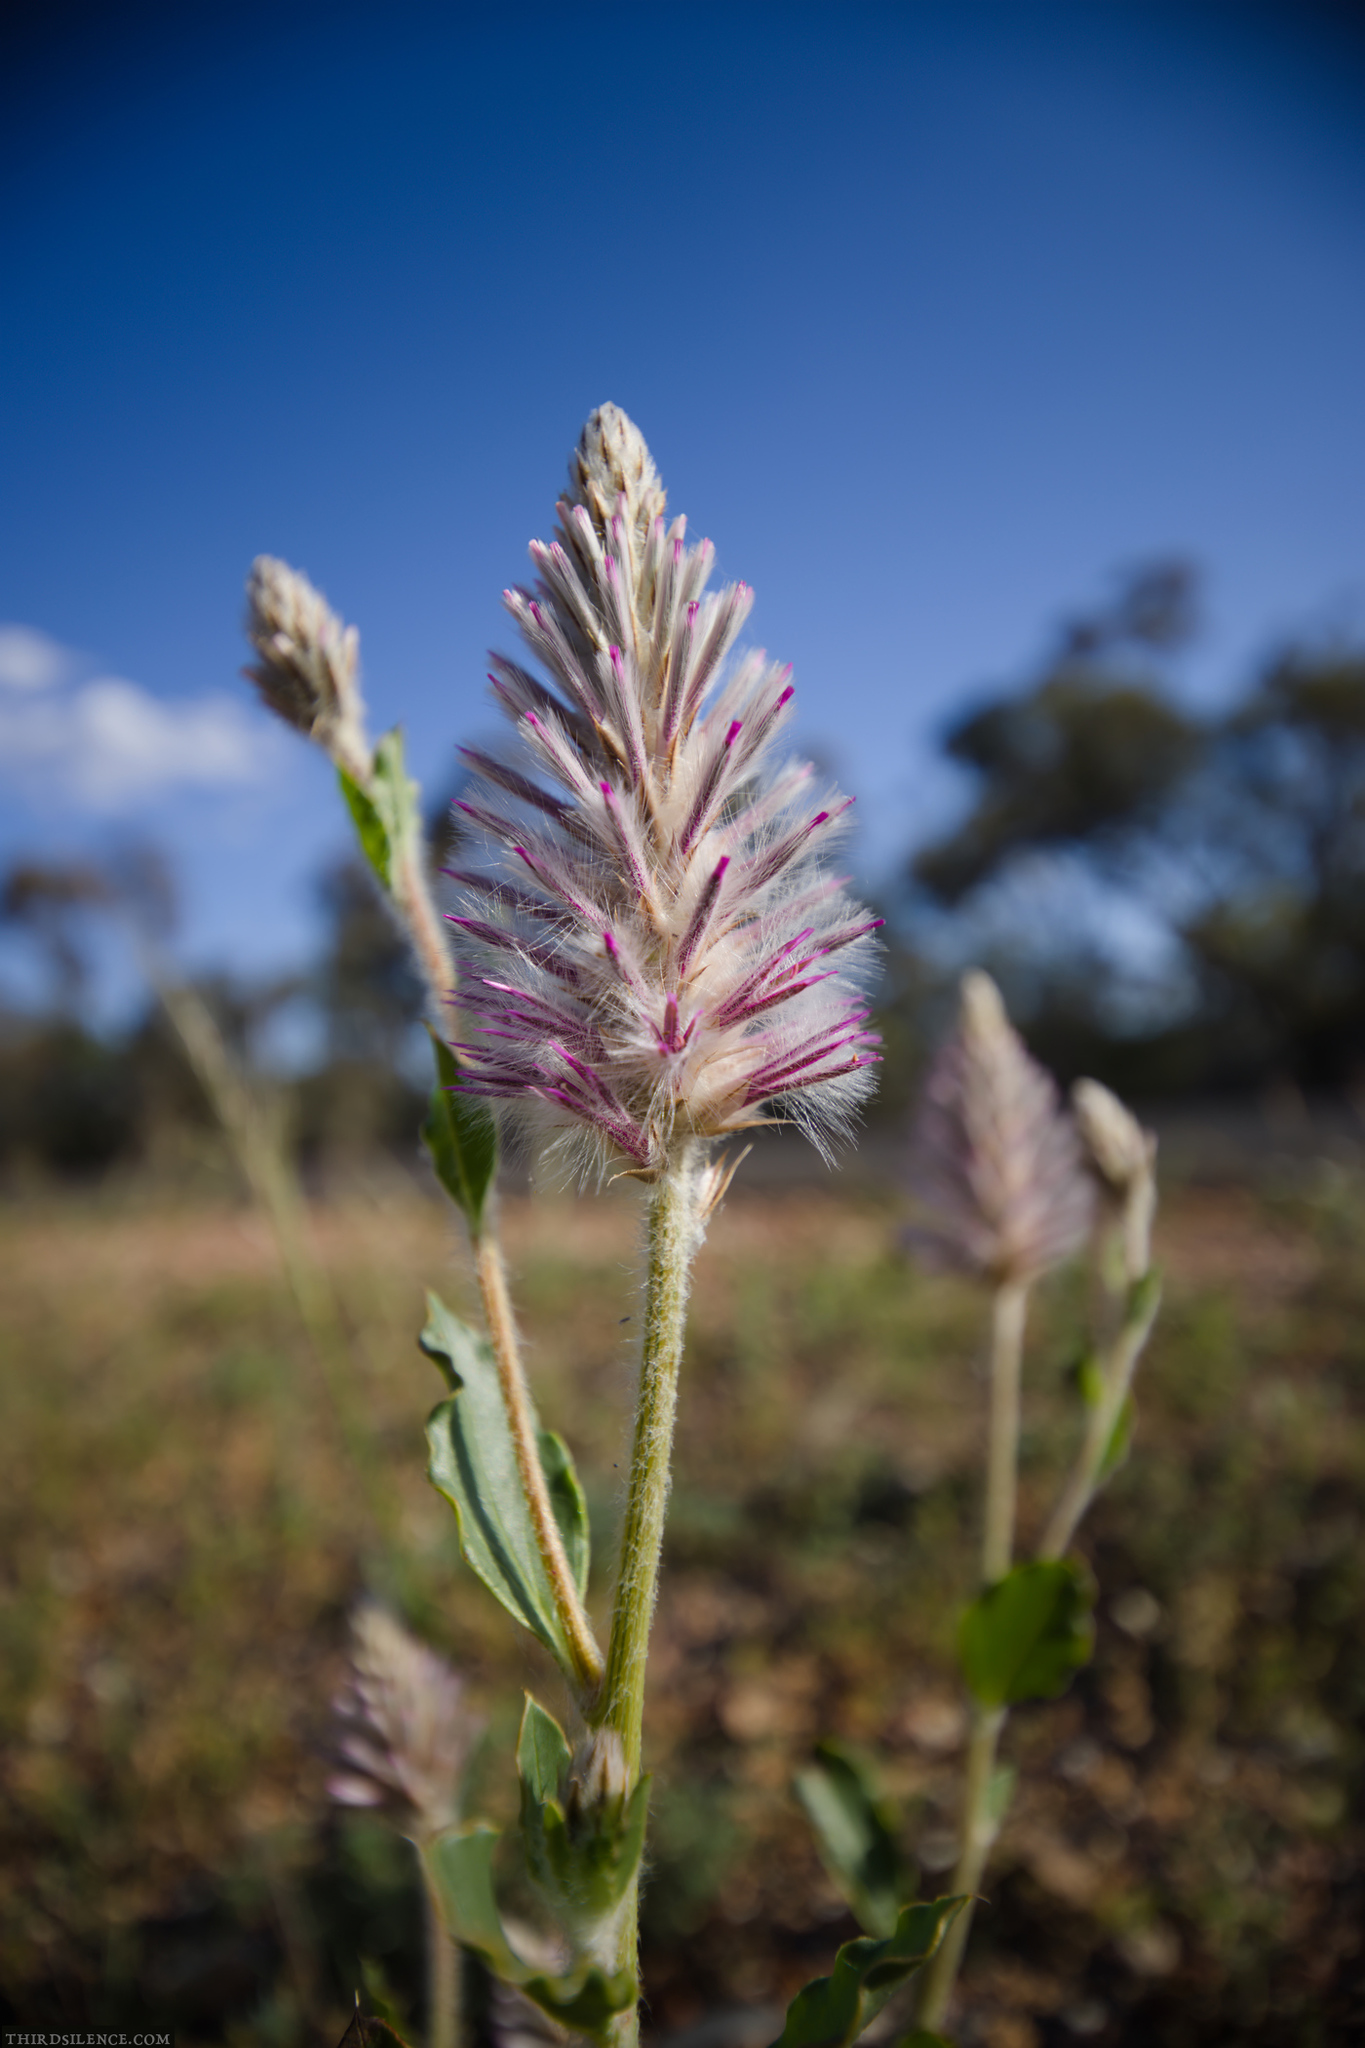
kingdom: Plantae
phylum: Tracheophyta
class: Magnoliopsida
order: Caryophyllales
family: Amaranthaceae
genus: Ptilotus
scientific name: Ptilotus exaltatus
